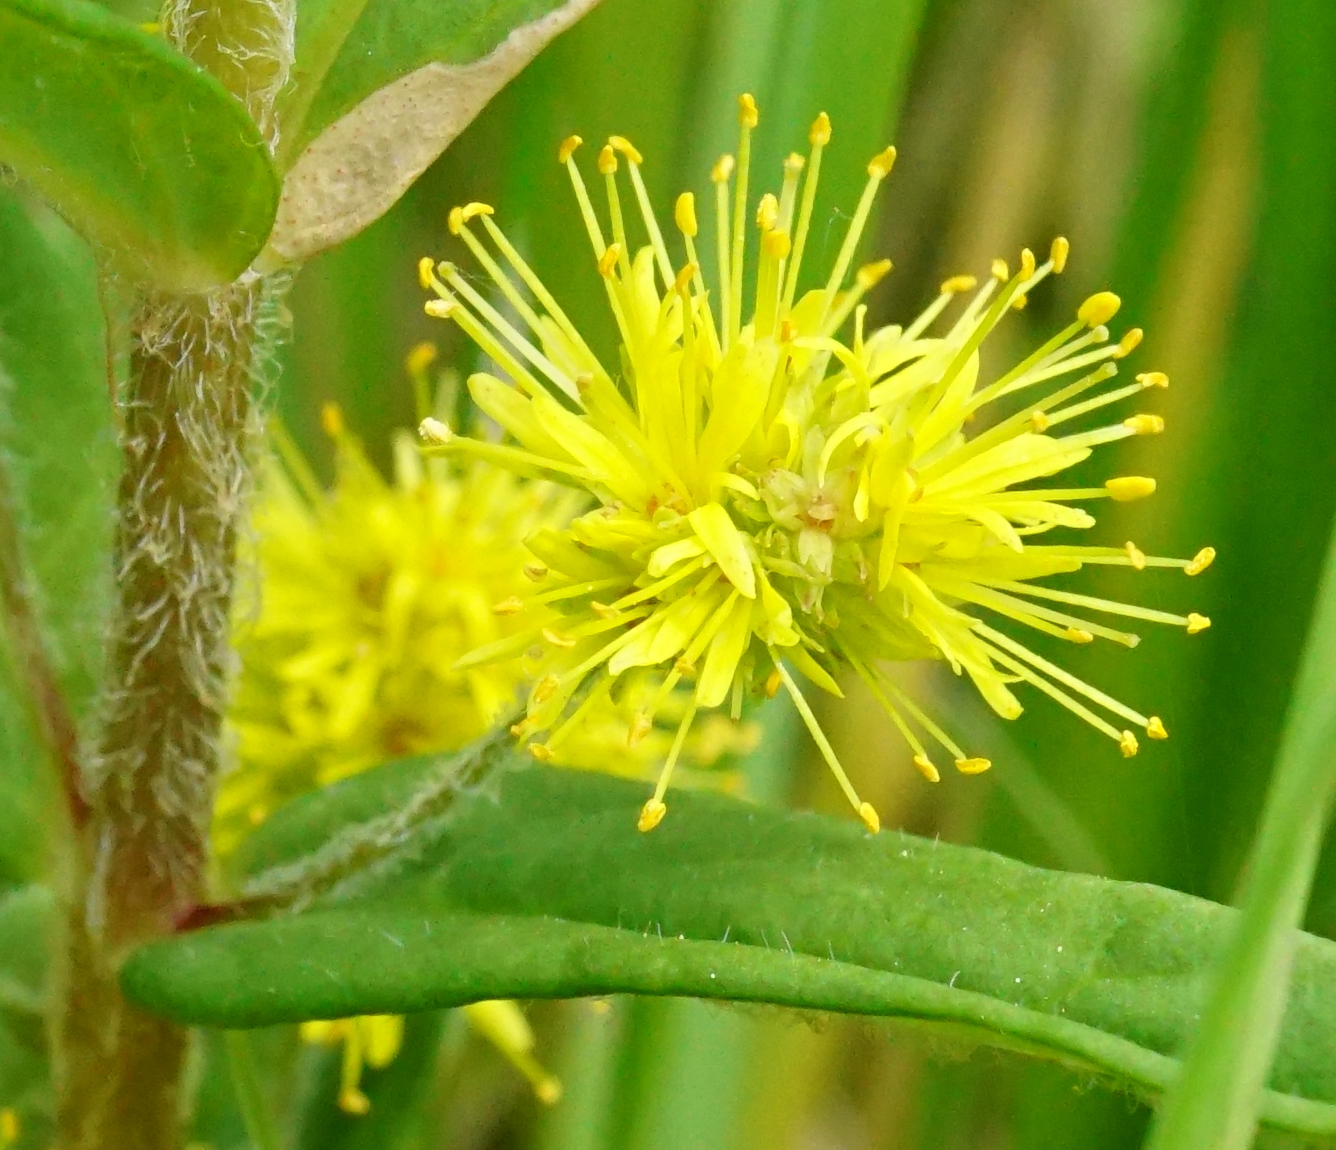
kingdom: Plantae
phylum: Tracheophyta
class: Magnoliopsida
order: Ericales
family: Primulaceae
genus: Lysimachia
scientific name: Lysimachia thyrsiflora
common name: Tufted loosestrife
